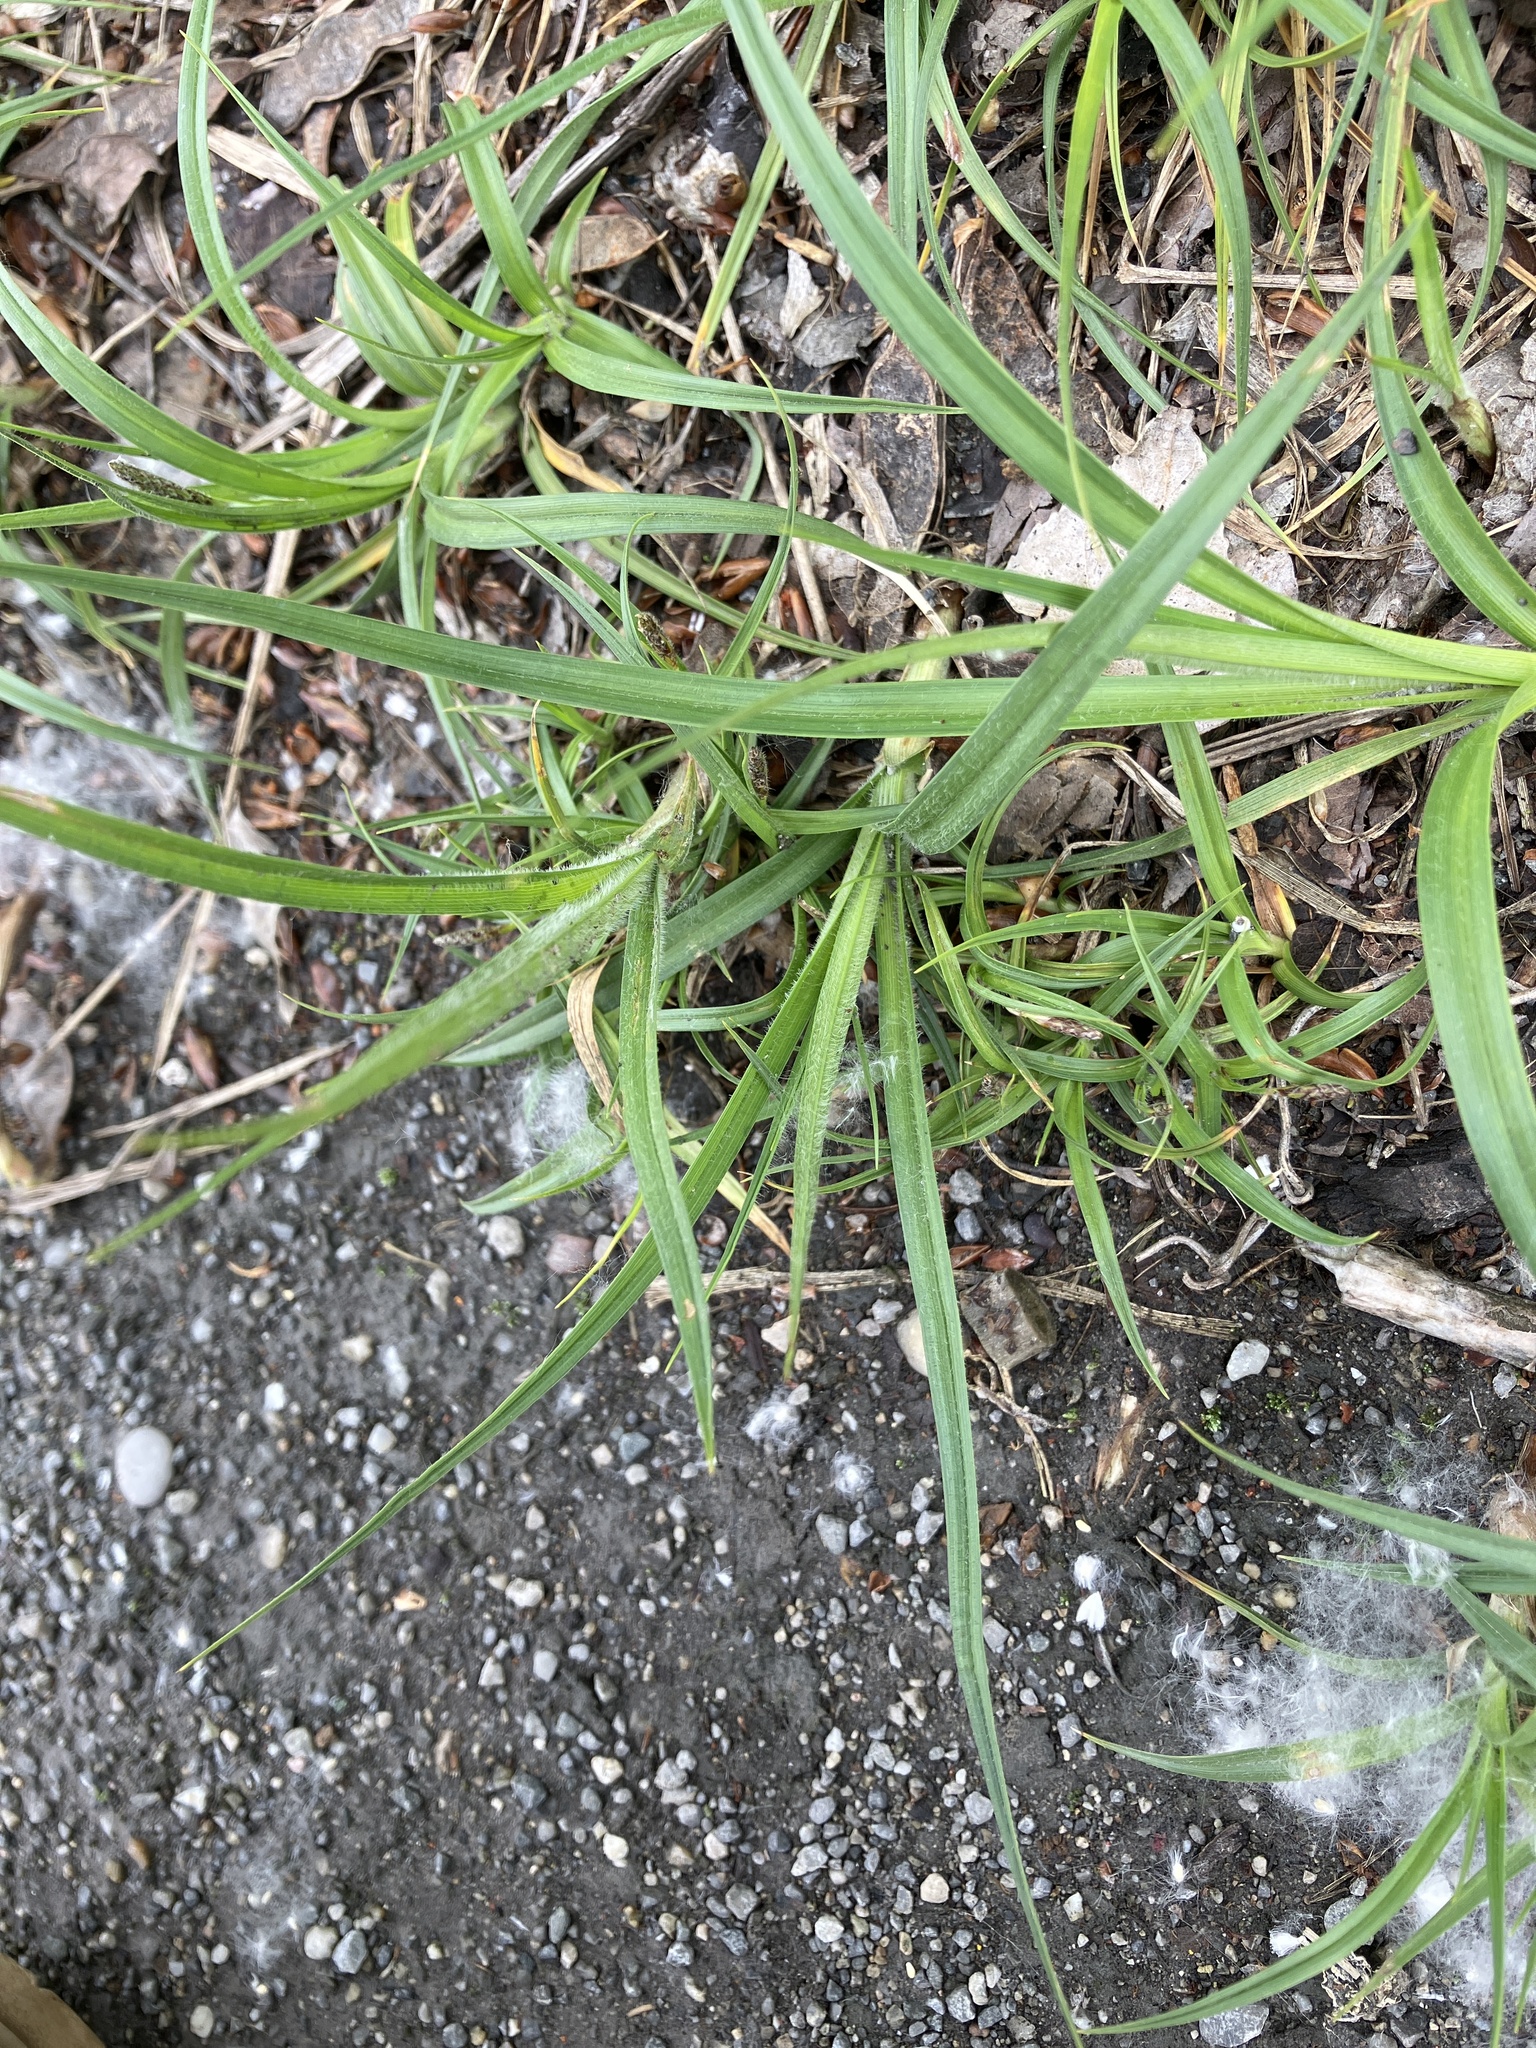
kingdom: Plantae
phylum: Tracheophyta
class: Liliopsida
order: Poales
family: Cyperaceae
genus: Carex
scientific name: Carex hirta
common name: Hairy sedge
